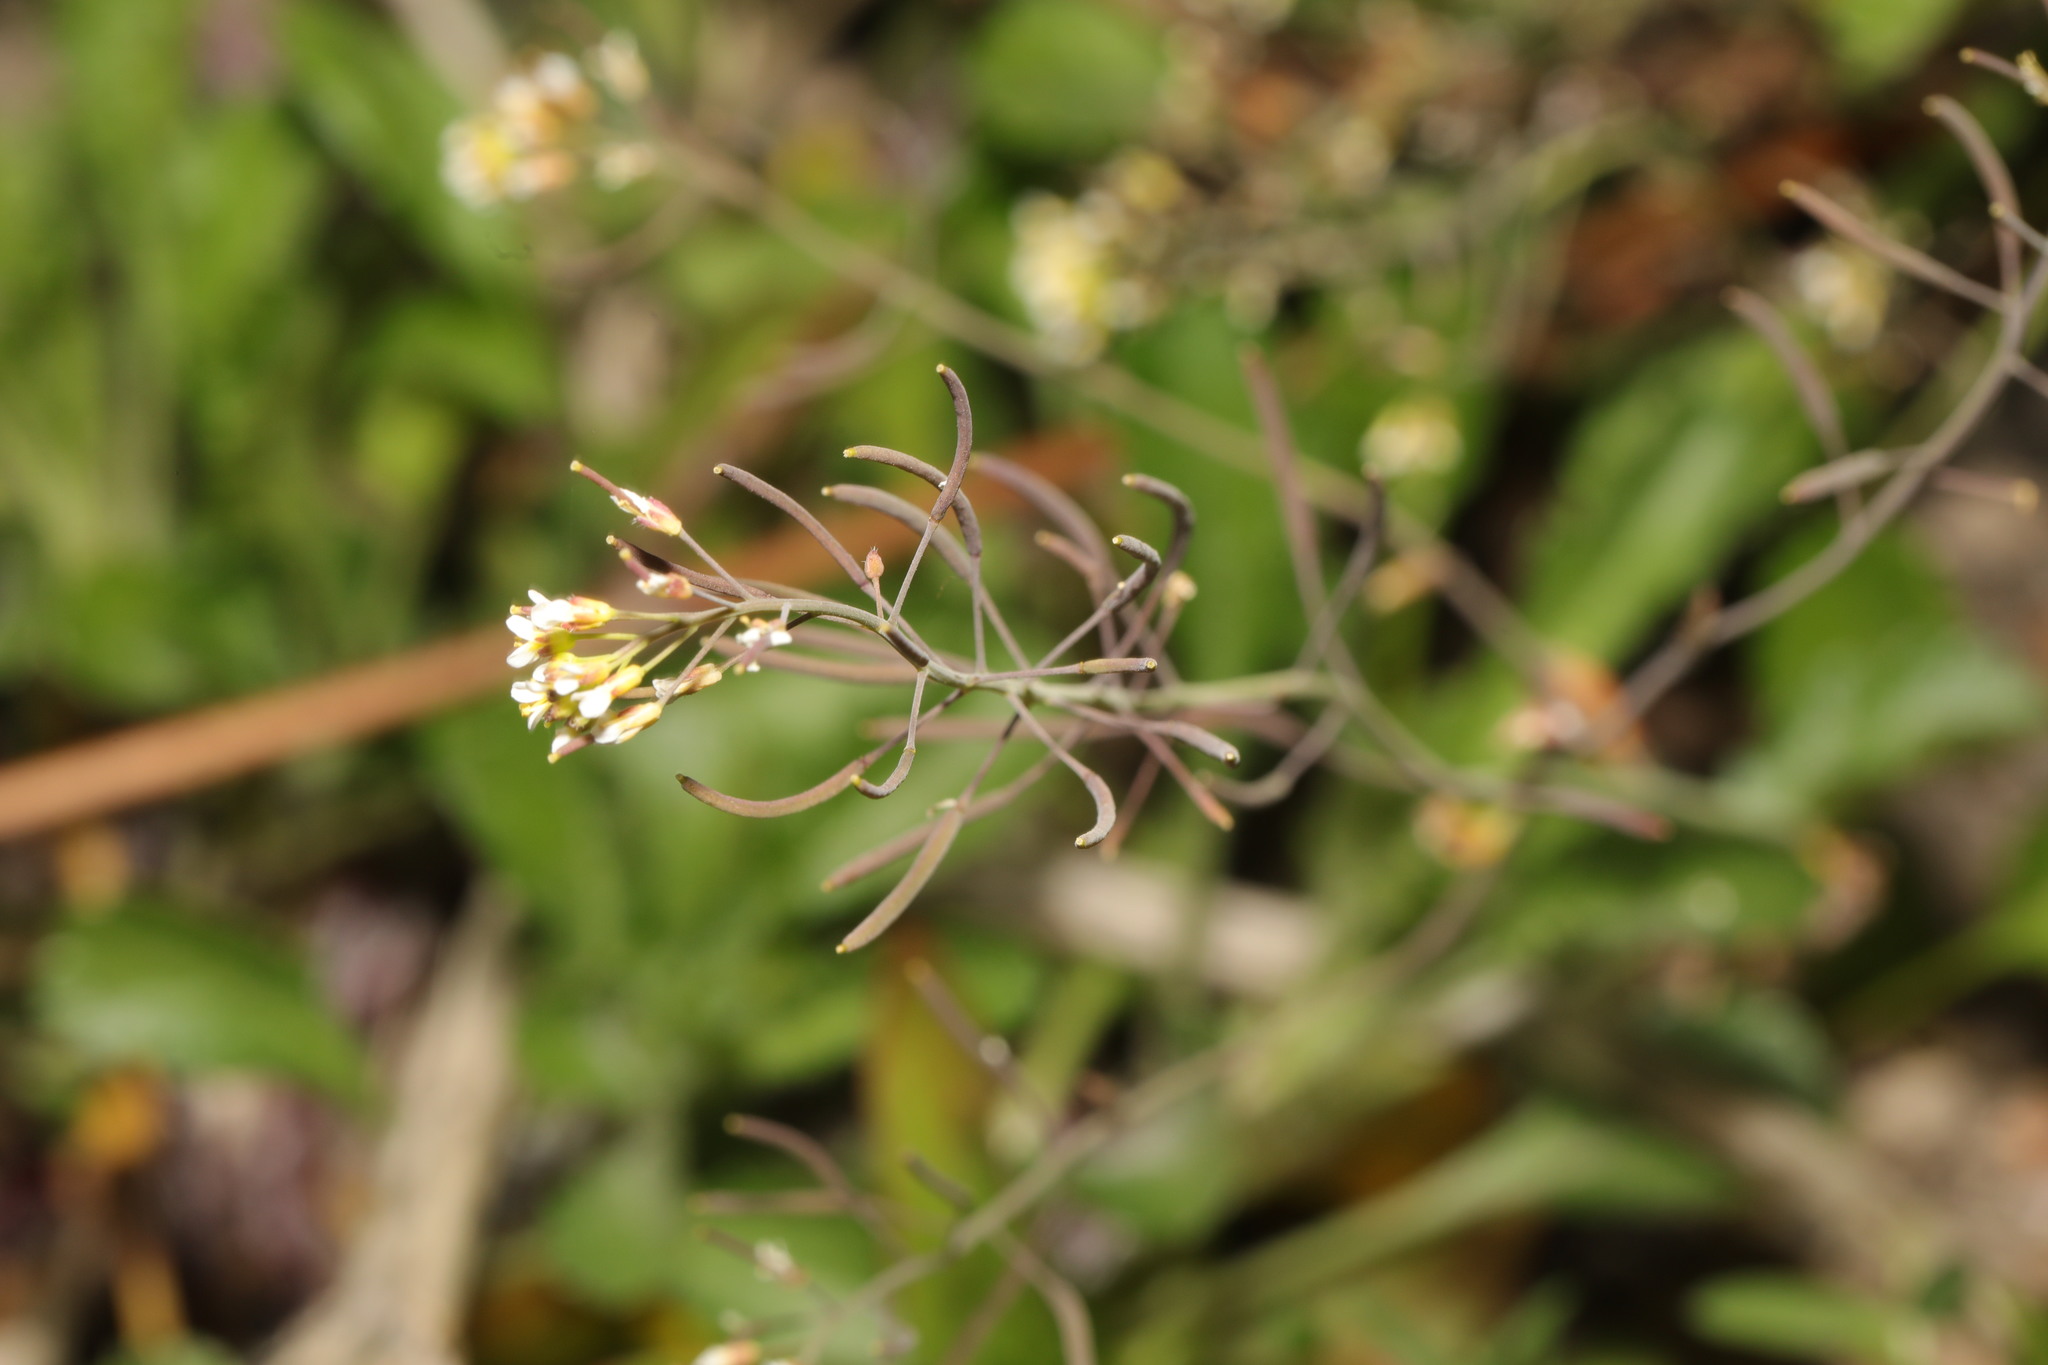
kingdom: Plantae
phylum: Tracheophyta
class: Magnoliopsida
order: Brassicales
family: Brassicaceae
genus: Arabidopsis
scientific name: Arabidopsis thaliana
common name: Thale cress
